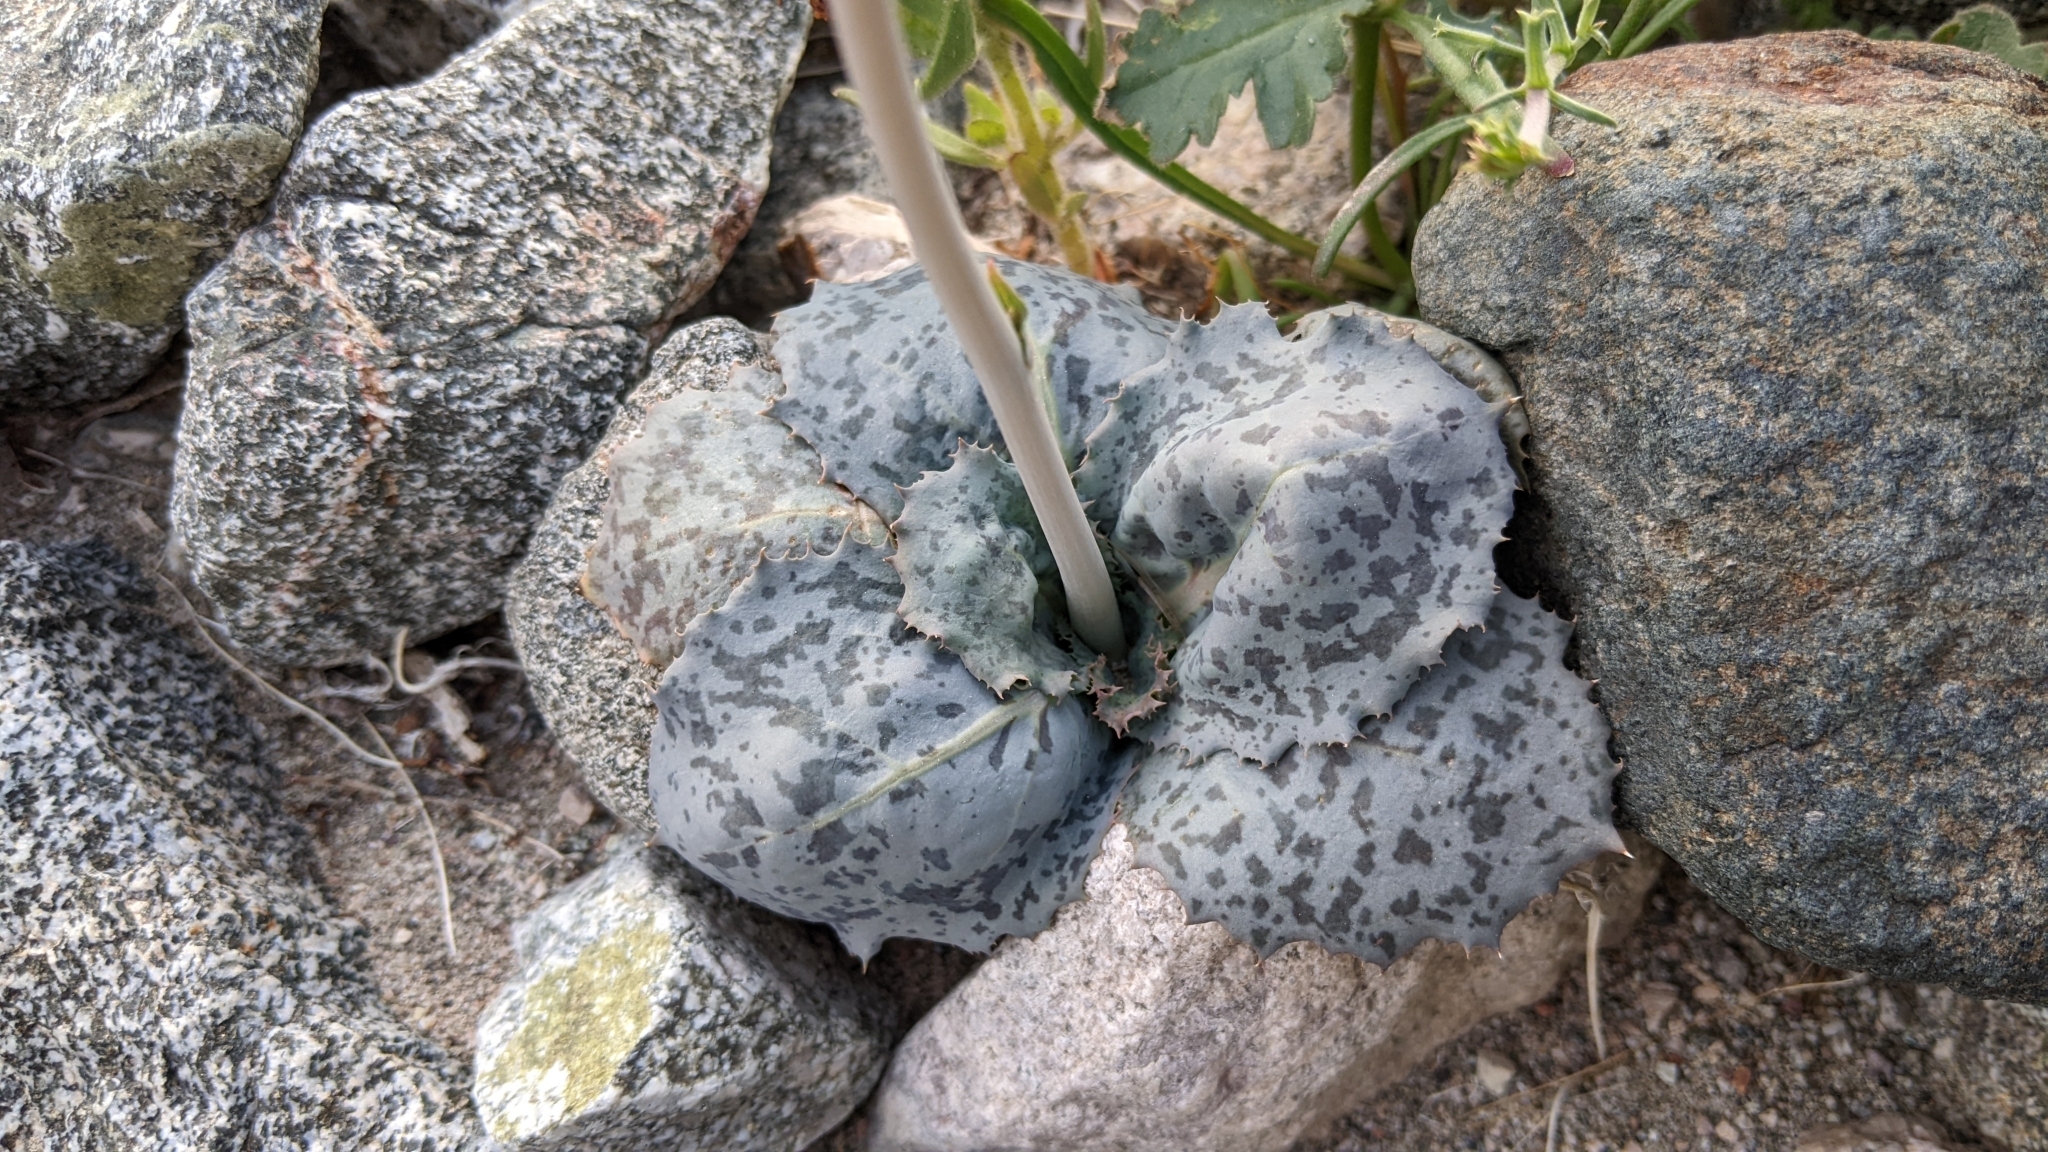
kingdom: Plantae
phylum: Tracheophyta
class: Magnoliopsida
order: Asterales
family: Asteraceae
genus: Atrichoseris
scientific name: Atrichoseris platyphylla
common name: Tobaccoweed
